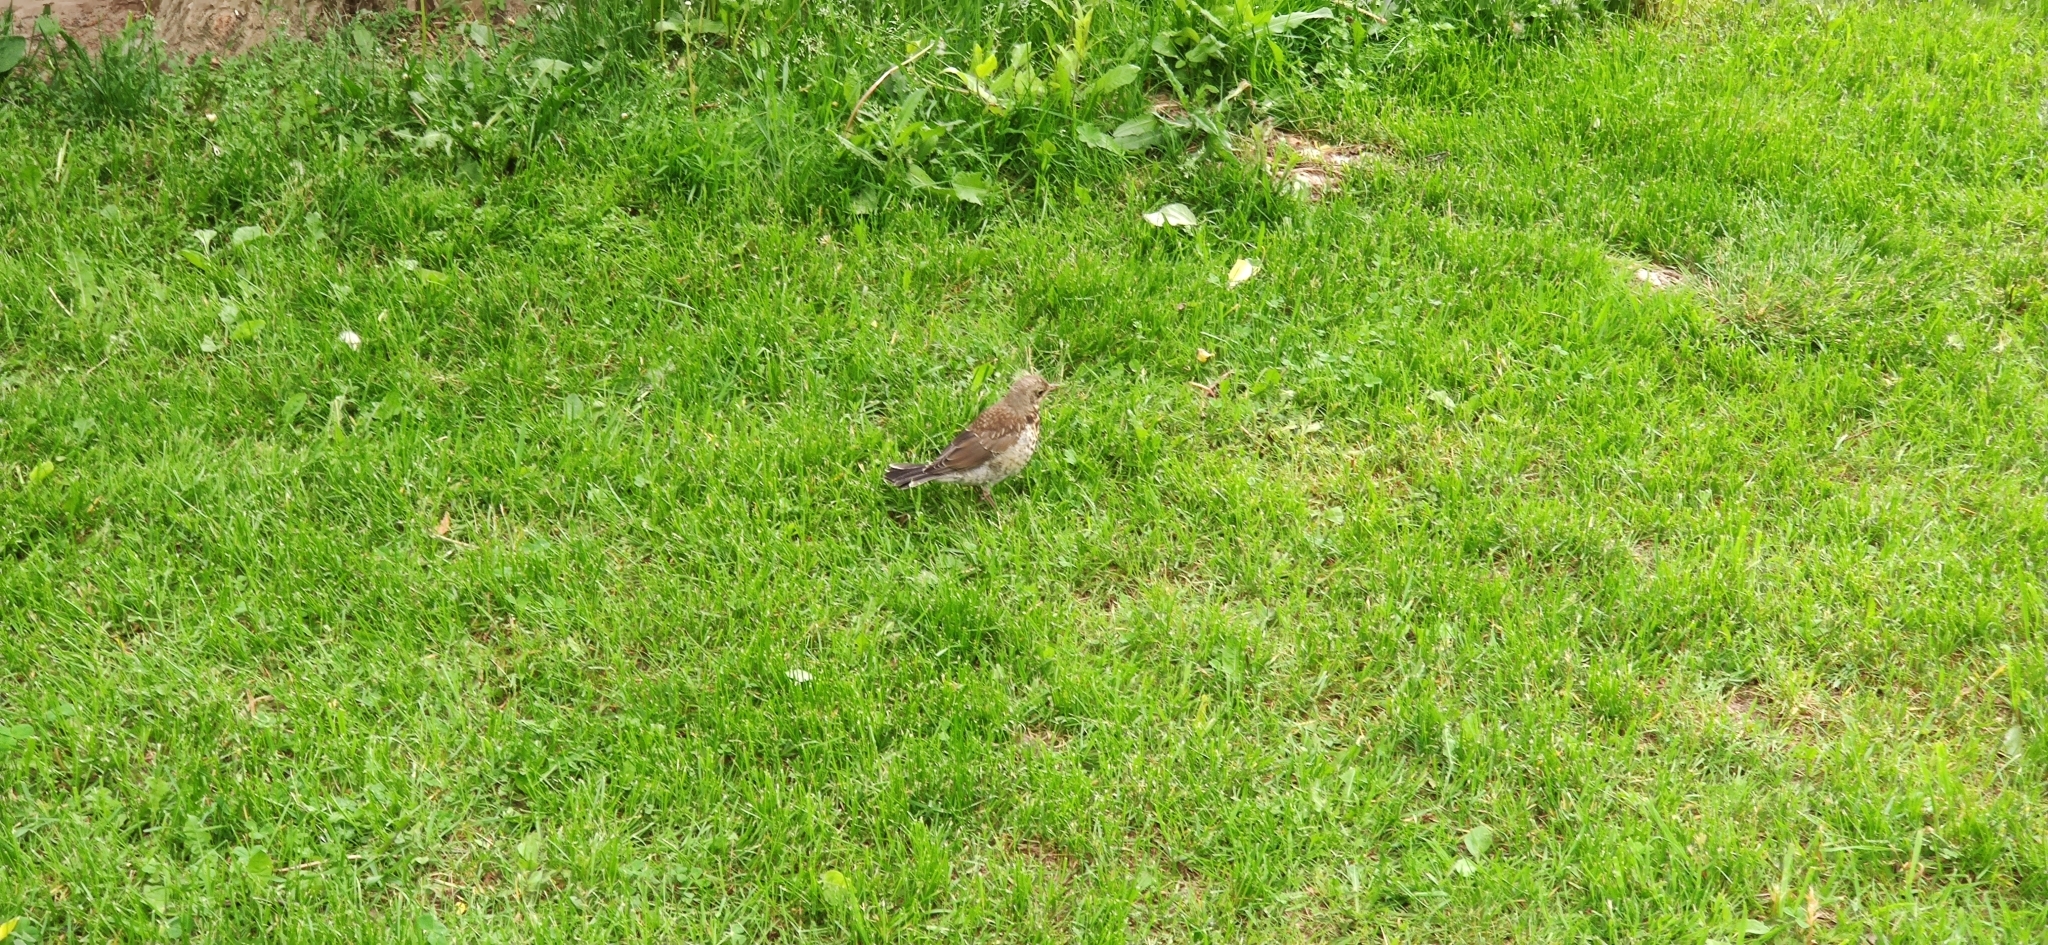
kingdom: Animalia
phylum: Chordata
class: Aves
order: Passeriformes
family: Turdidae
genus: Turdus
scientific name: Turdus pilaris
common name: Fieldfare
